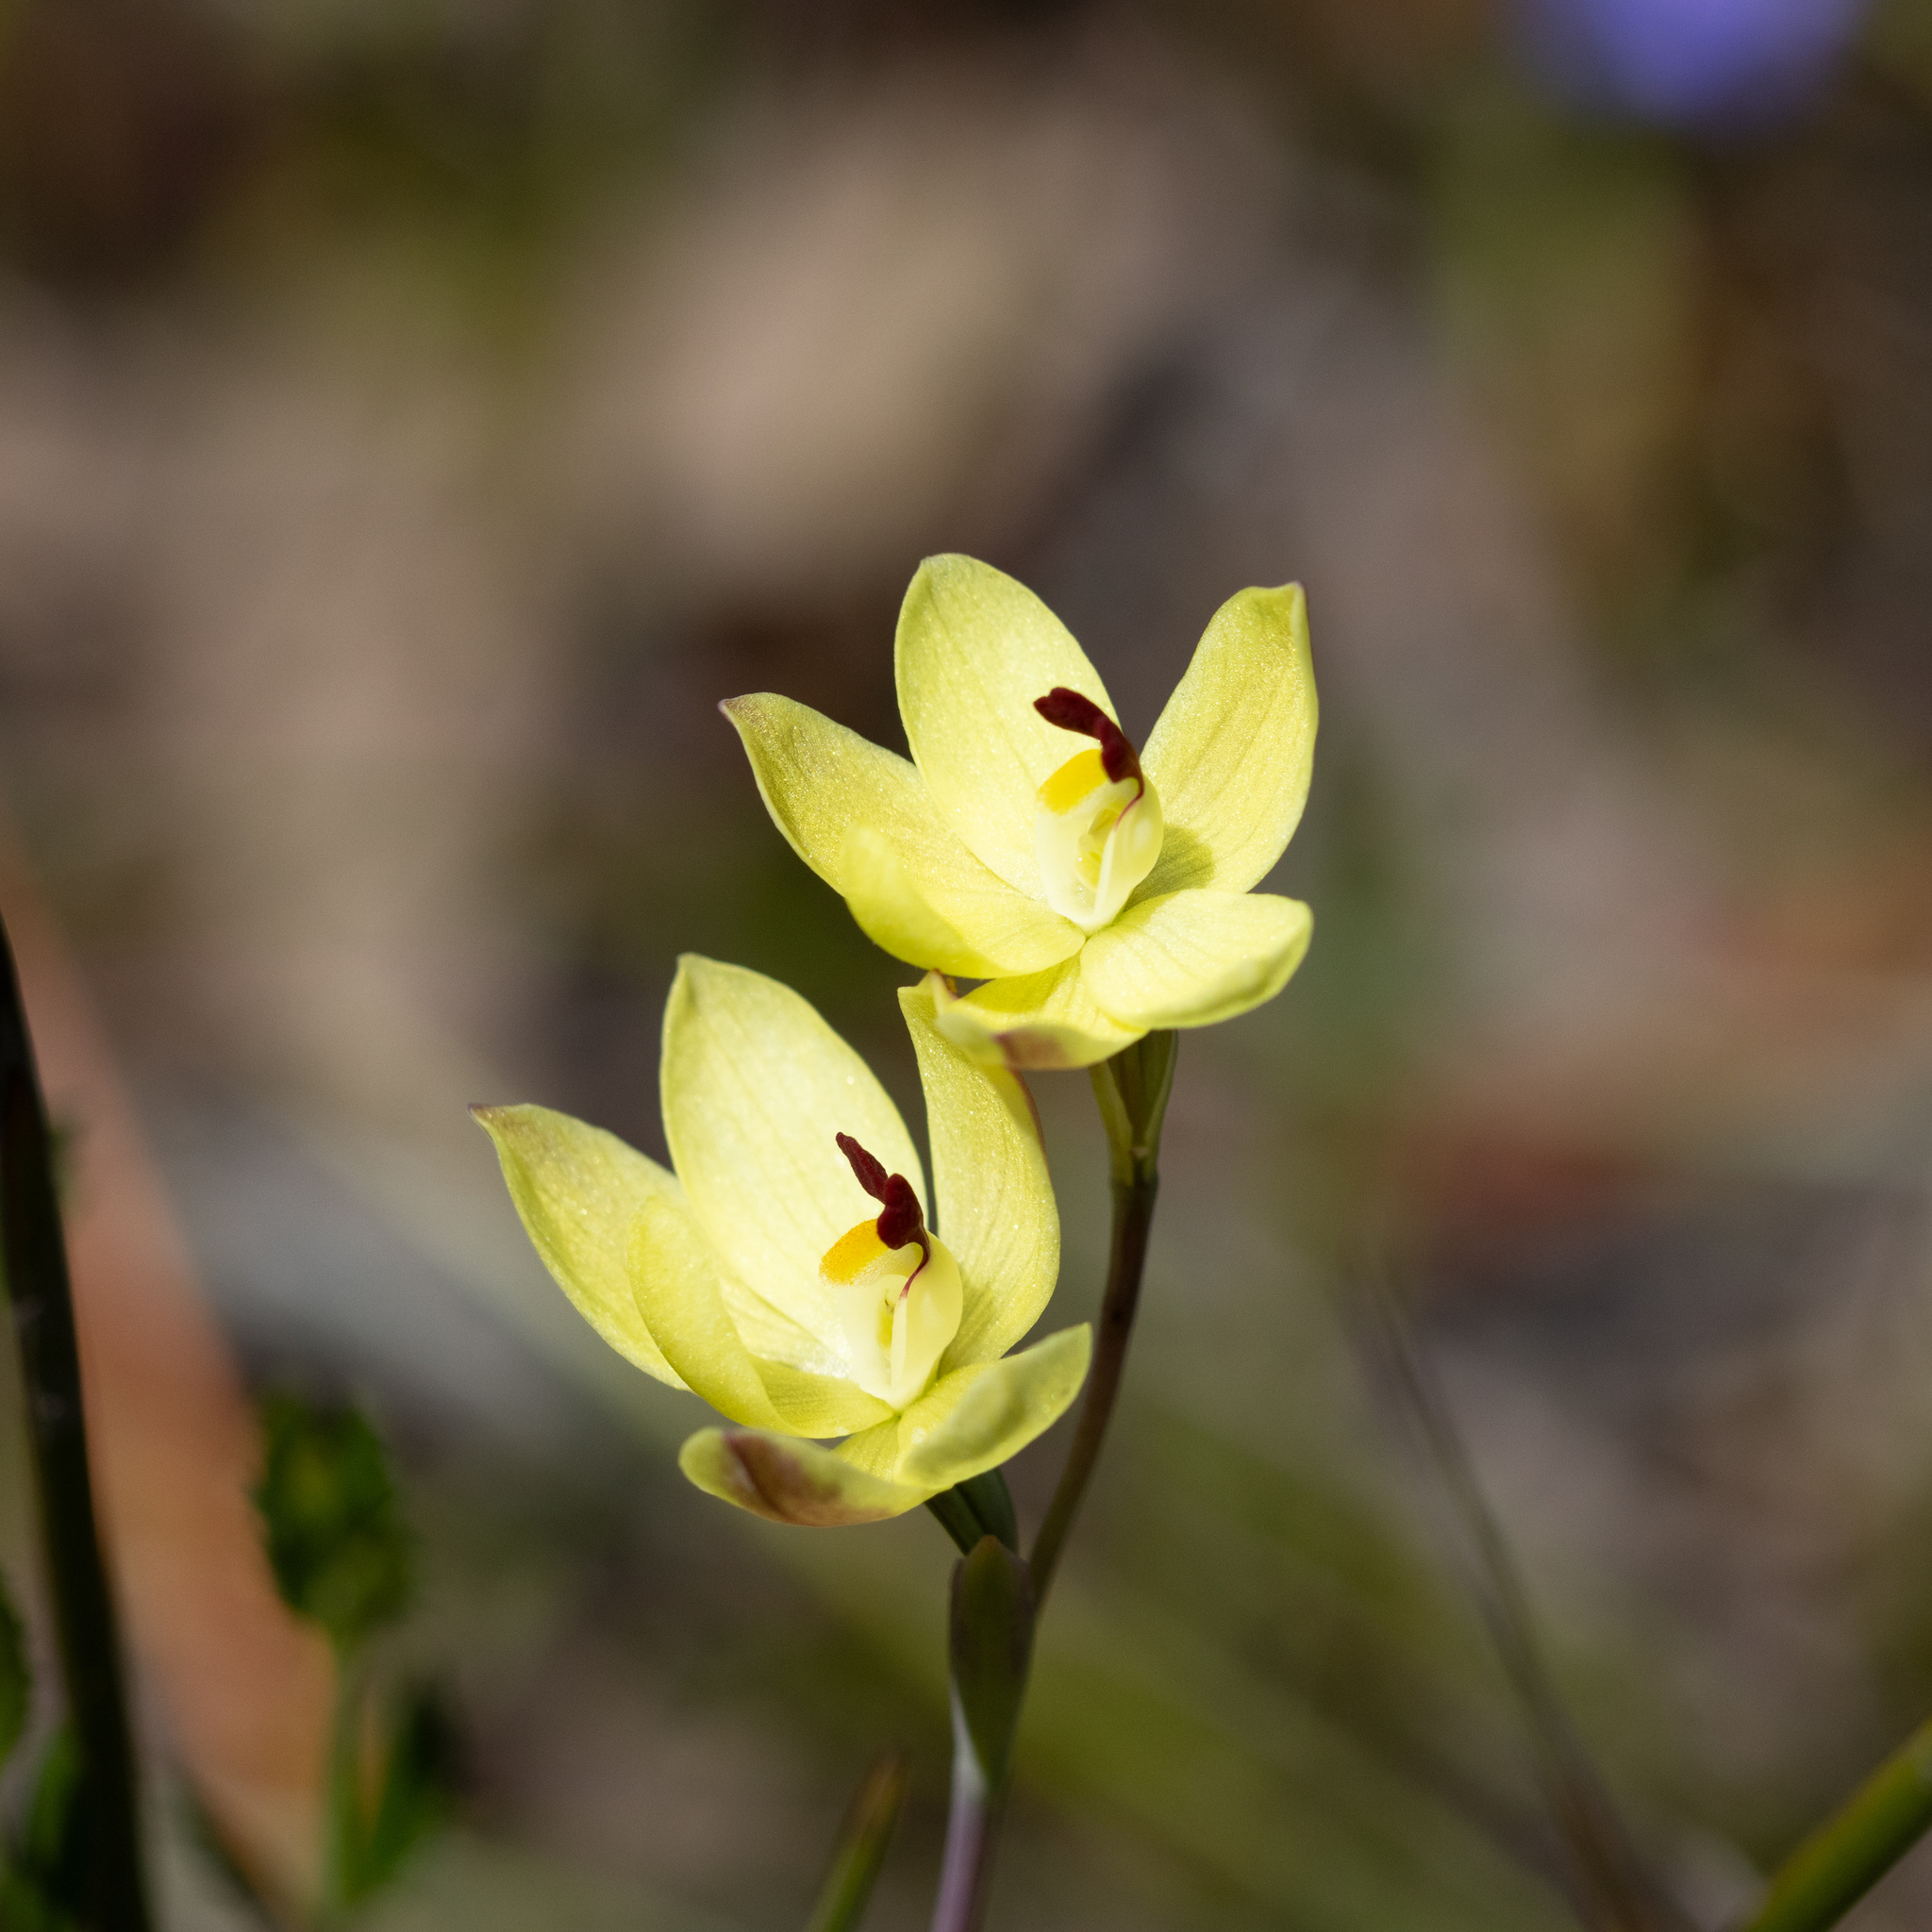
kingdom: Plantae
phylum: Tracheophyta
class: Liliopsida
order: Asparagales
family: Orchidaceae
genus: Thelymitra
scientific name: Thelymitra antennifera
